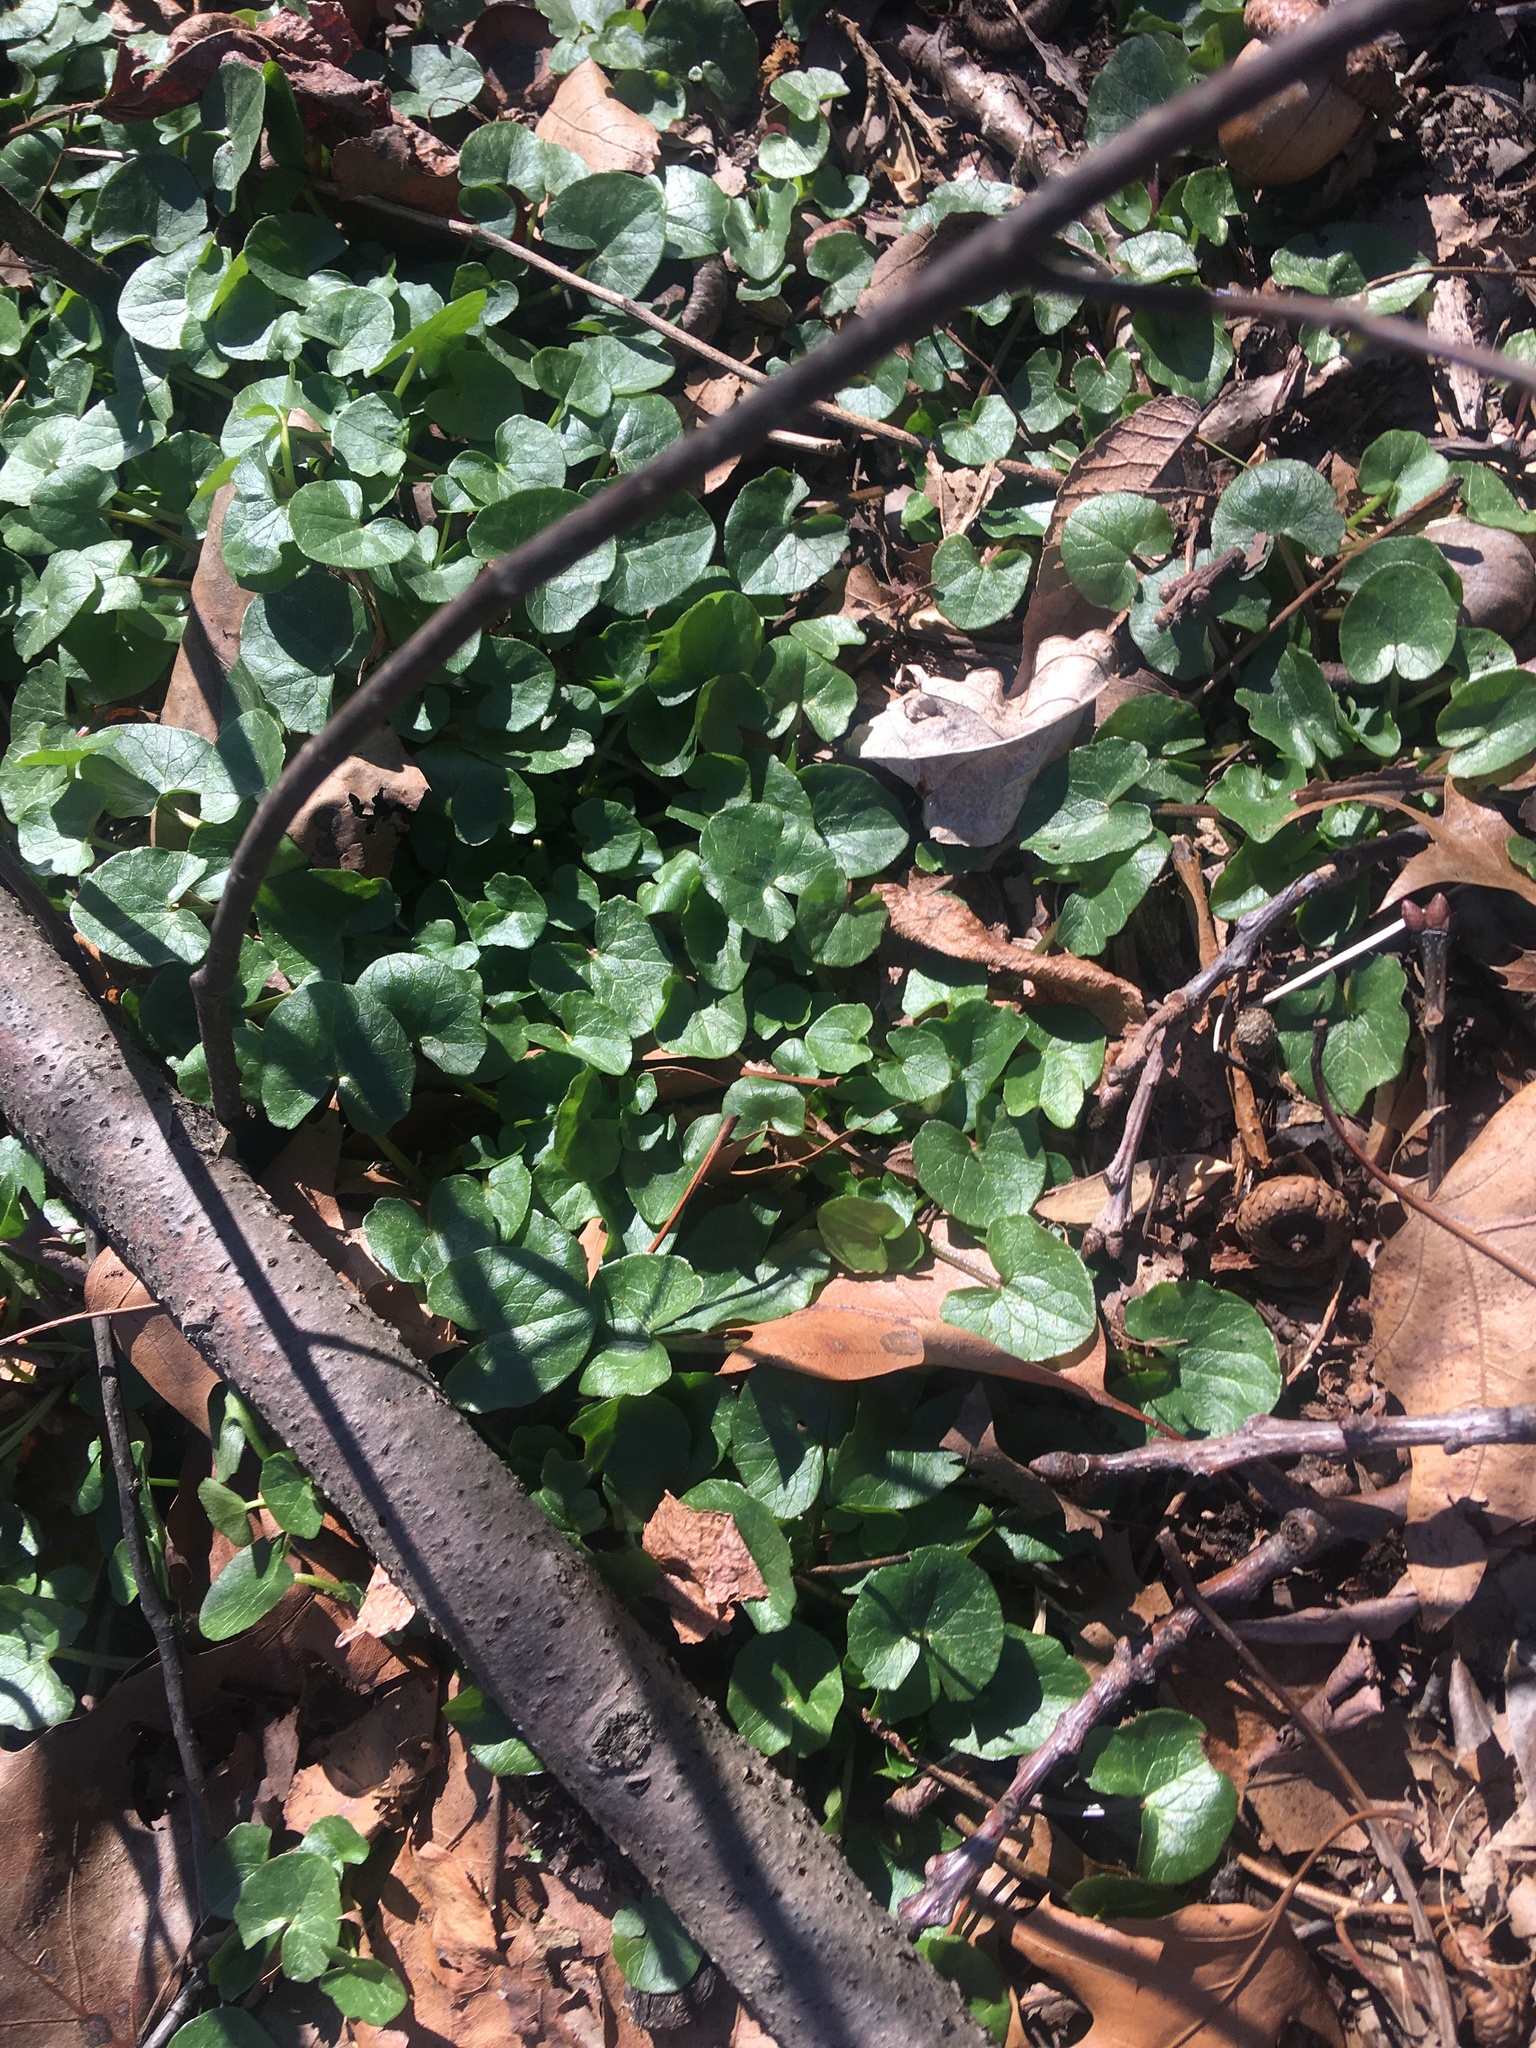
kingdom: Plantae
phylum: Tracheophyta
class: Magnoliopsida
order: Ranunculales
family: Ranunculaceae
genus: Ficaria
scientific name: Ficaria verna
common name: Lesser celandine
